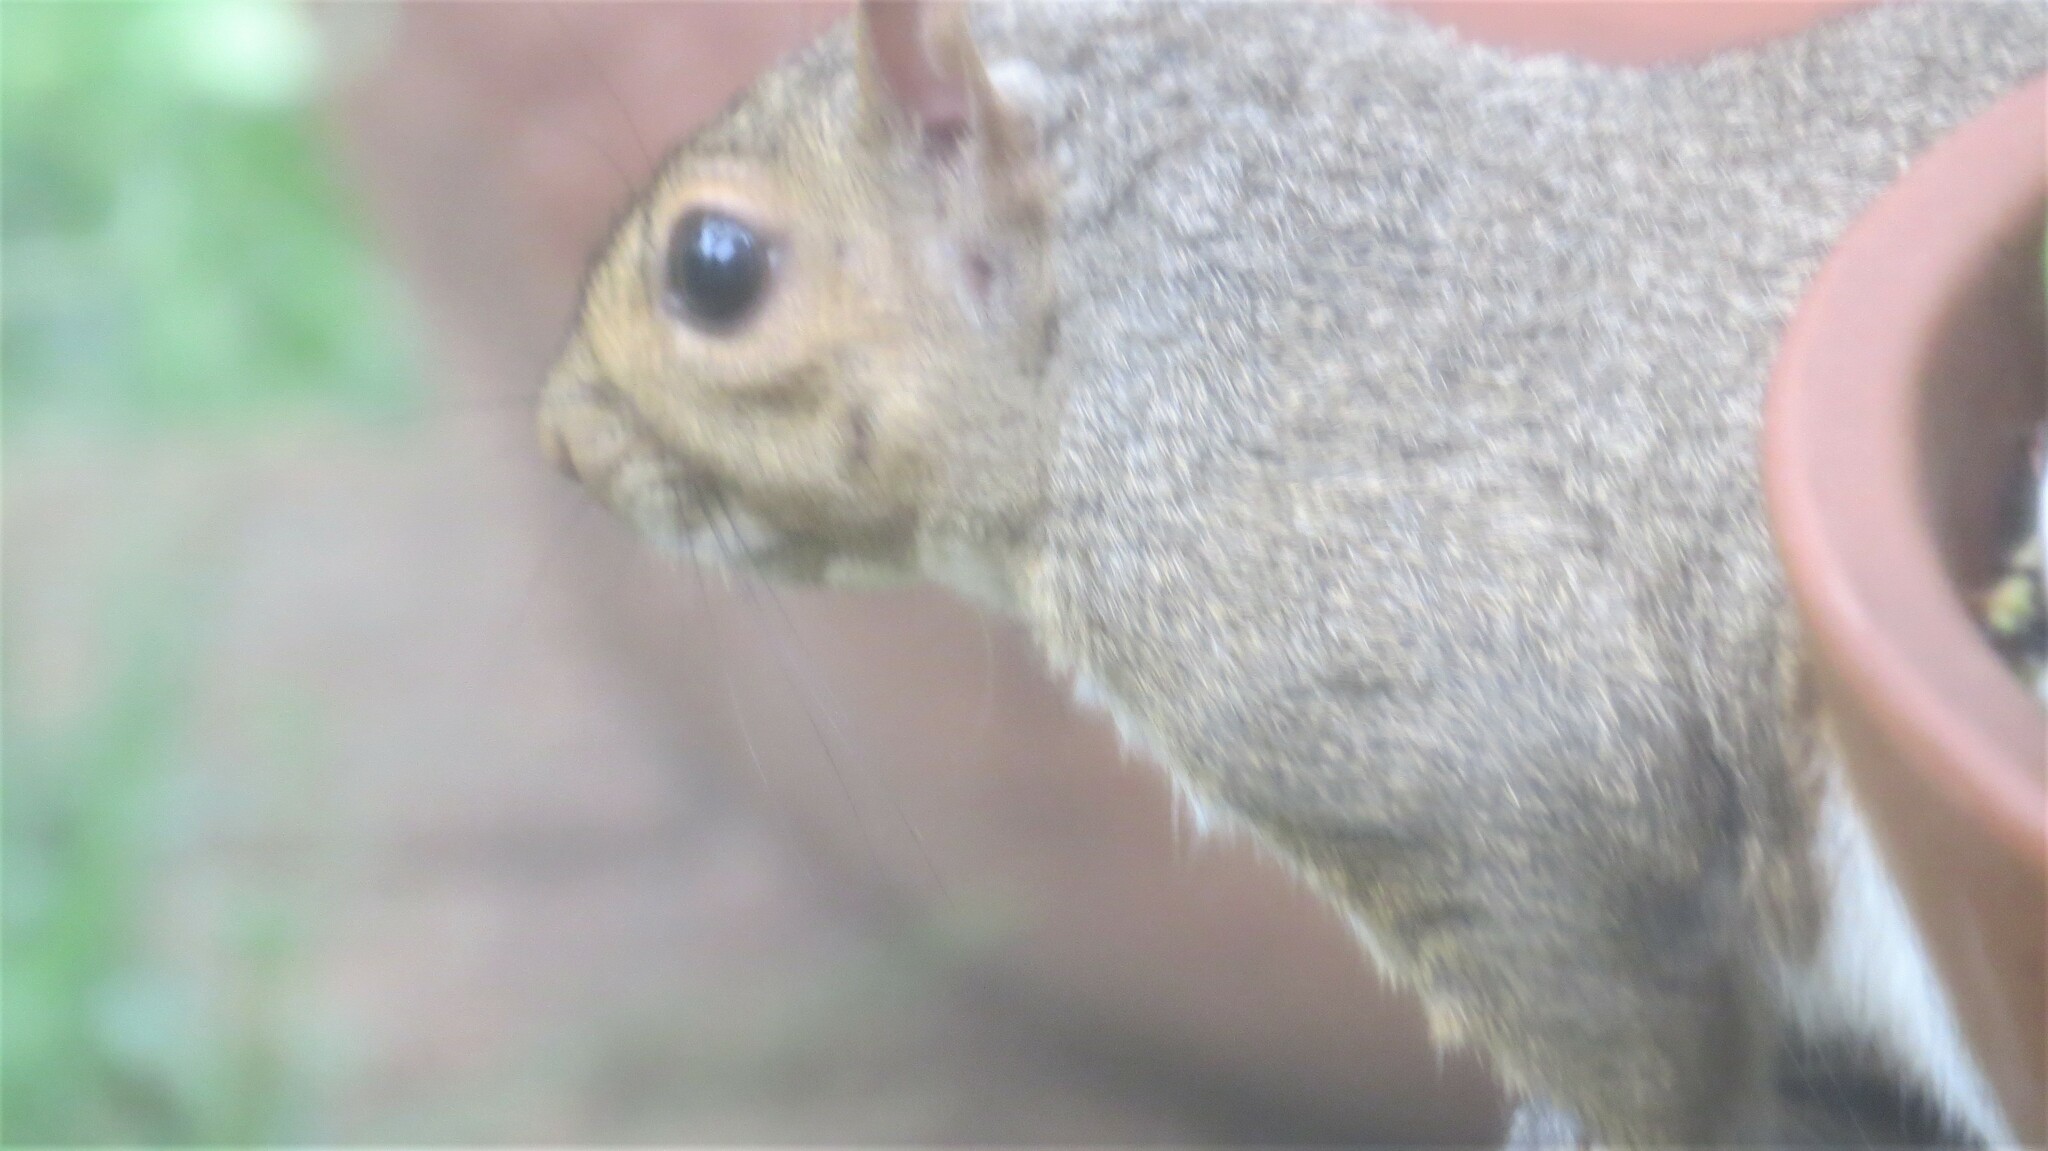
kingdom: Animalia
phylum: Chordata
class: Mammalia
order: Rodentia
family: Sciuridae
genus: Sciurus
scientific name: Sciurus carolinensis
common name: Eastern gray squirrel
